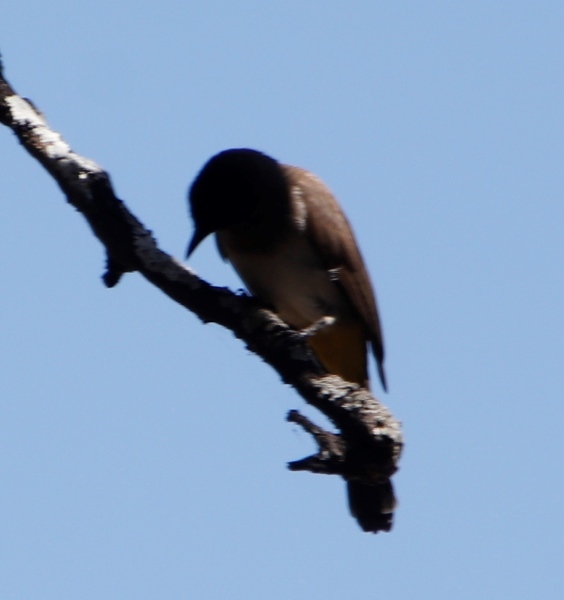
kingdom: Animalia
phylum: Chordata
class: Aves
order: Passeriformes
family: Pycnonotidae
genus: Pycnonotus
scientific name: Pycnonotus barbatus
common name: Common bulbul
